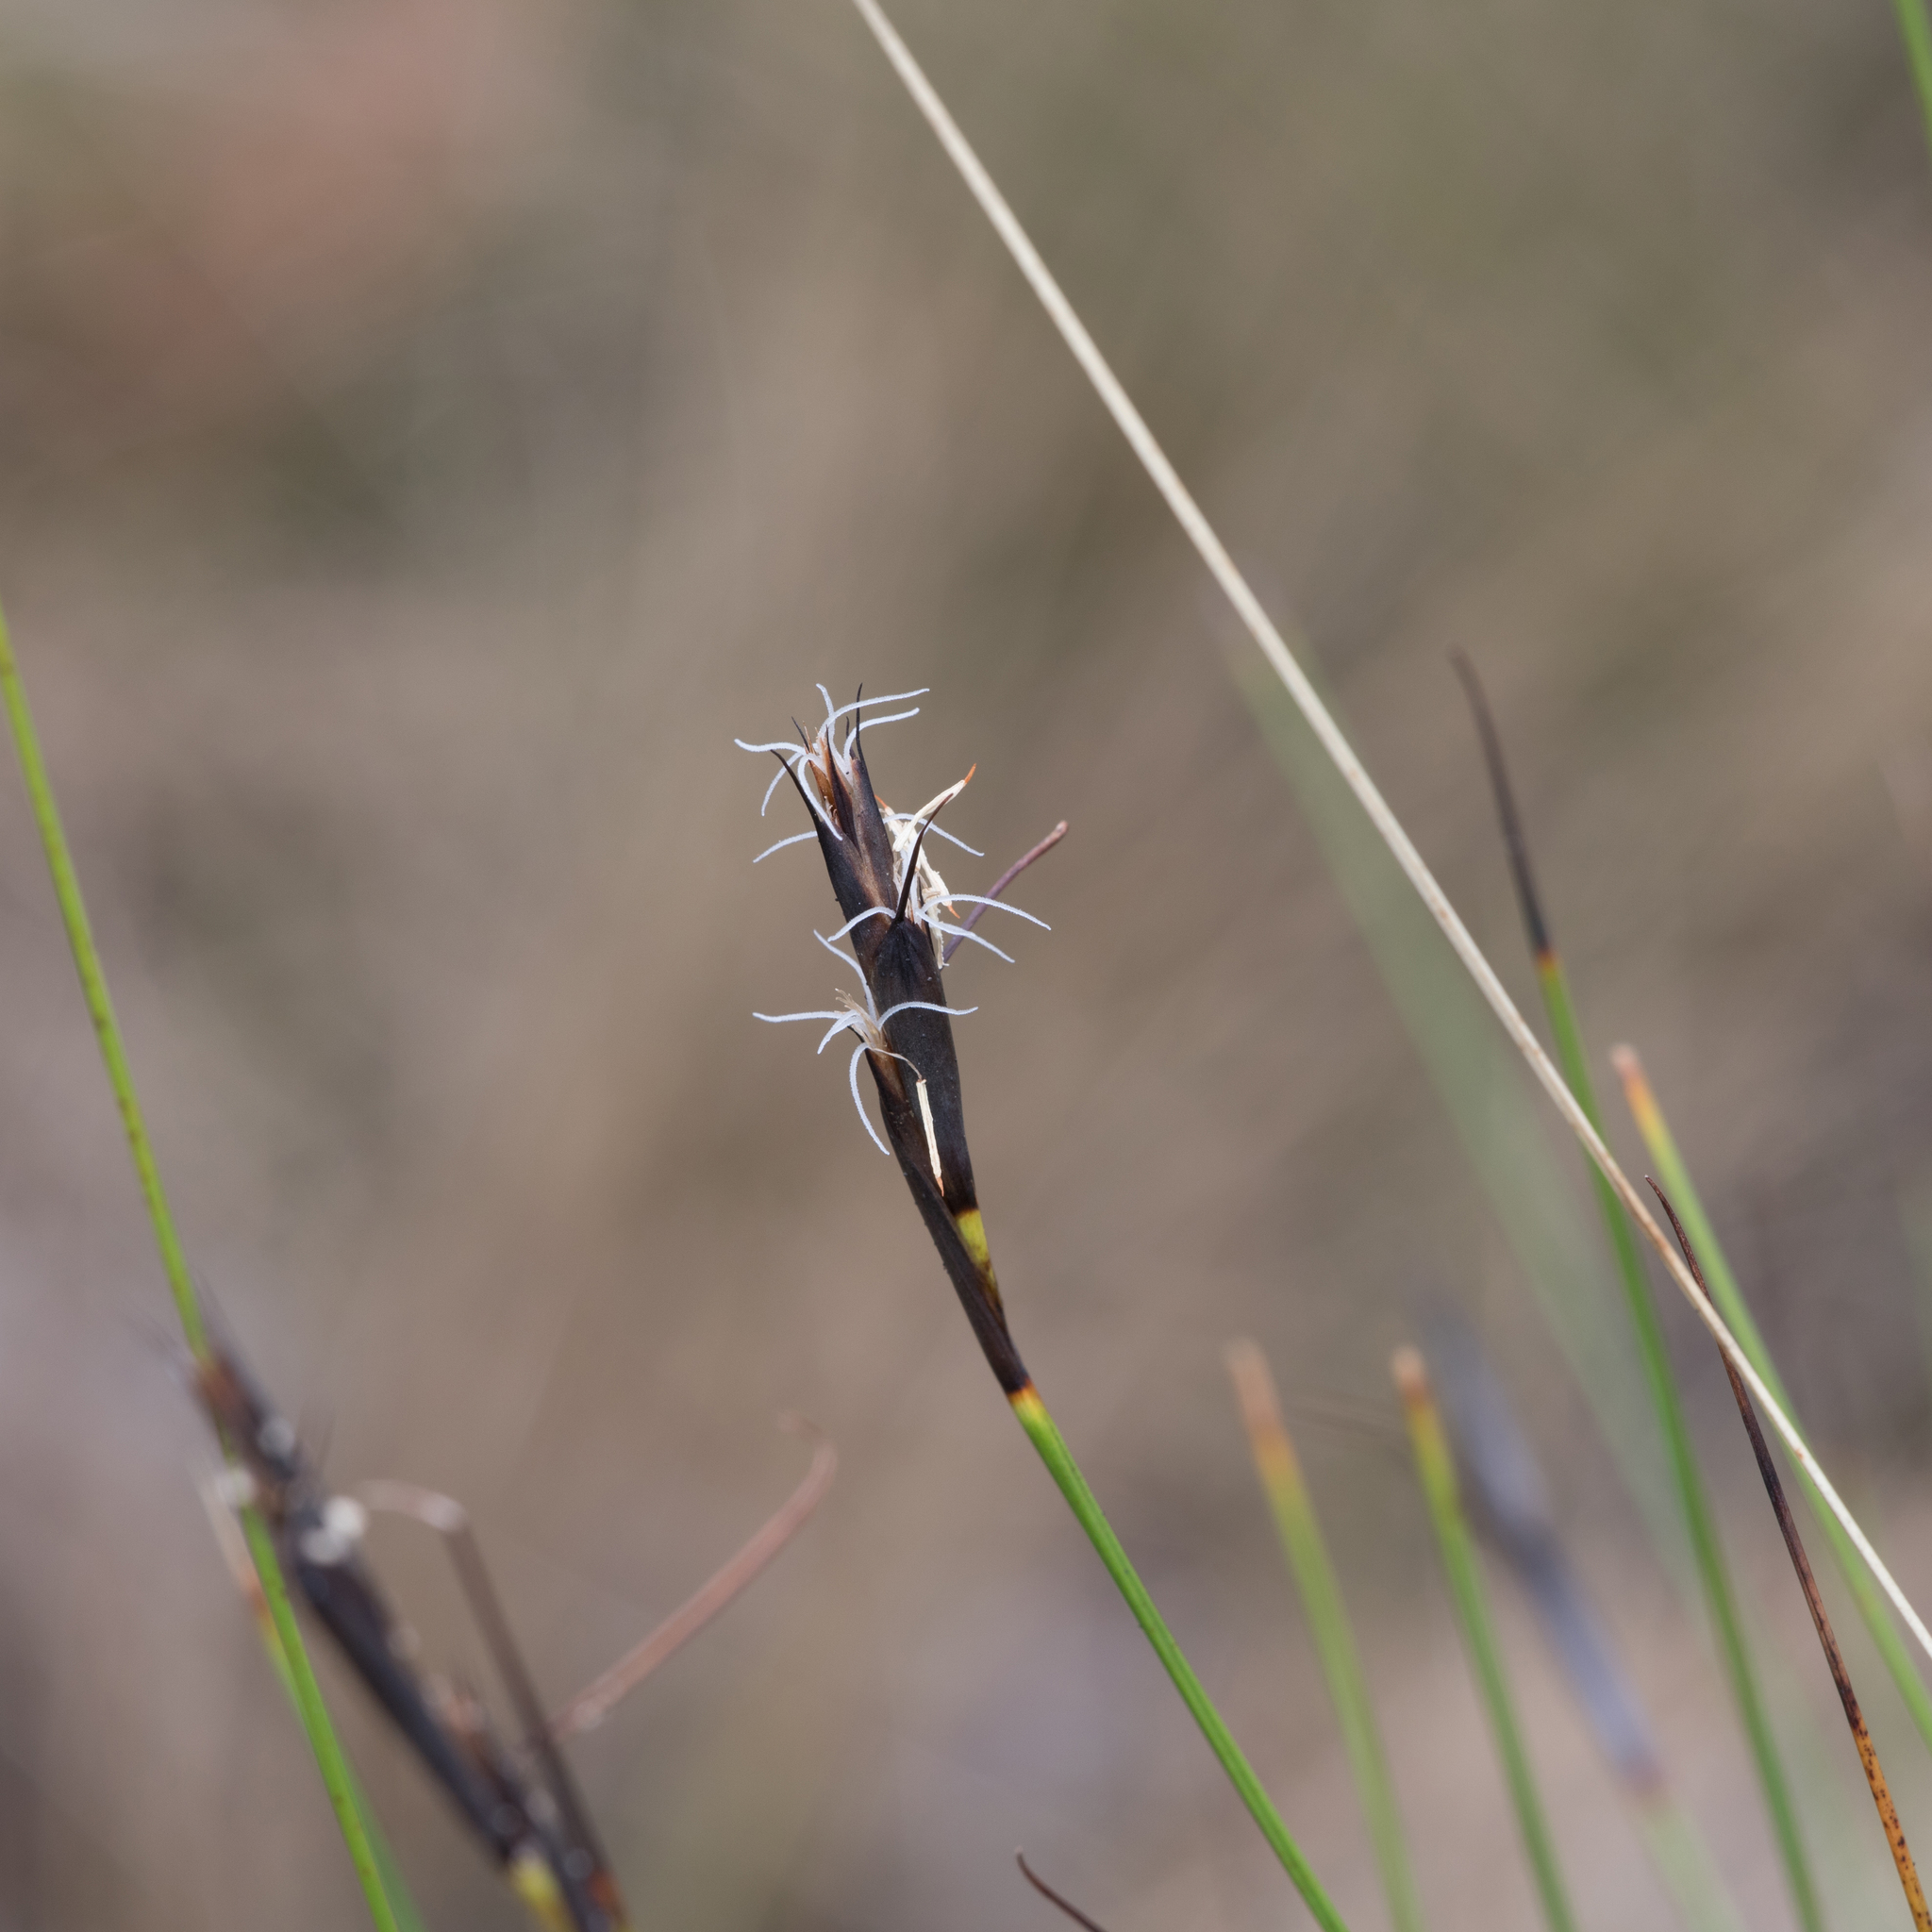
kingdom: Plantae
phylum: Tracheophyta
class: Liliopsida
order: Poales
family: Cyperaceae
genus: Lepidosperma
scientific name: Lepidosperma carphoides
